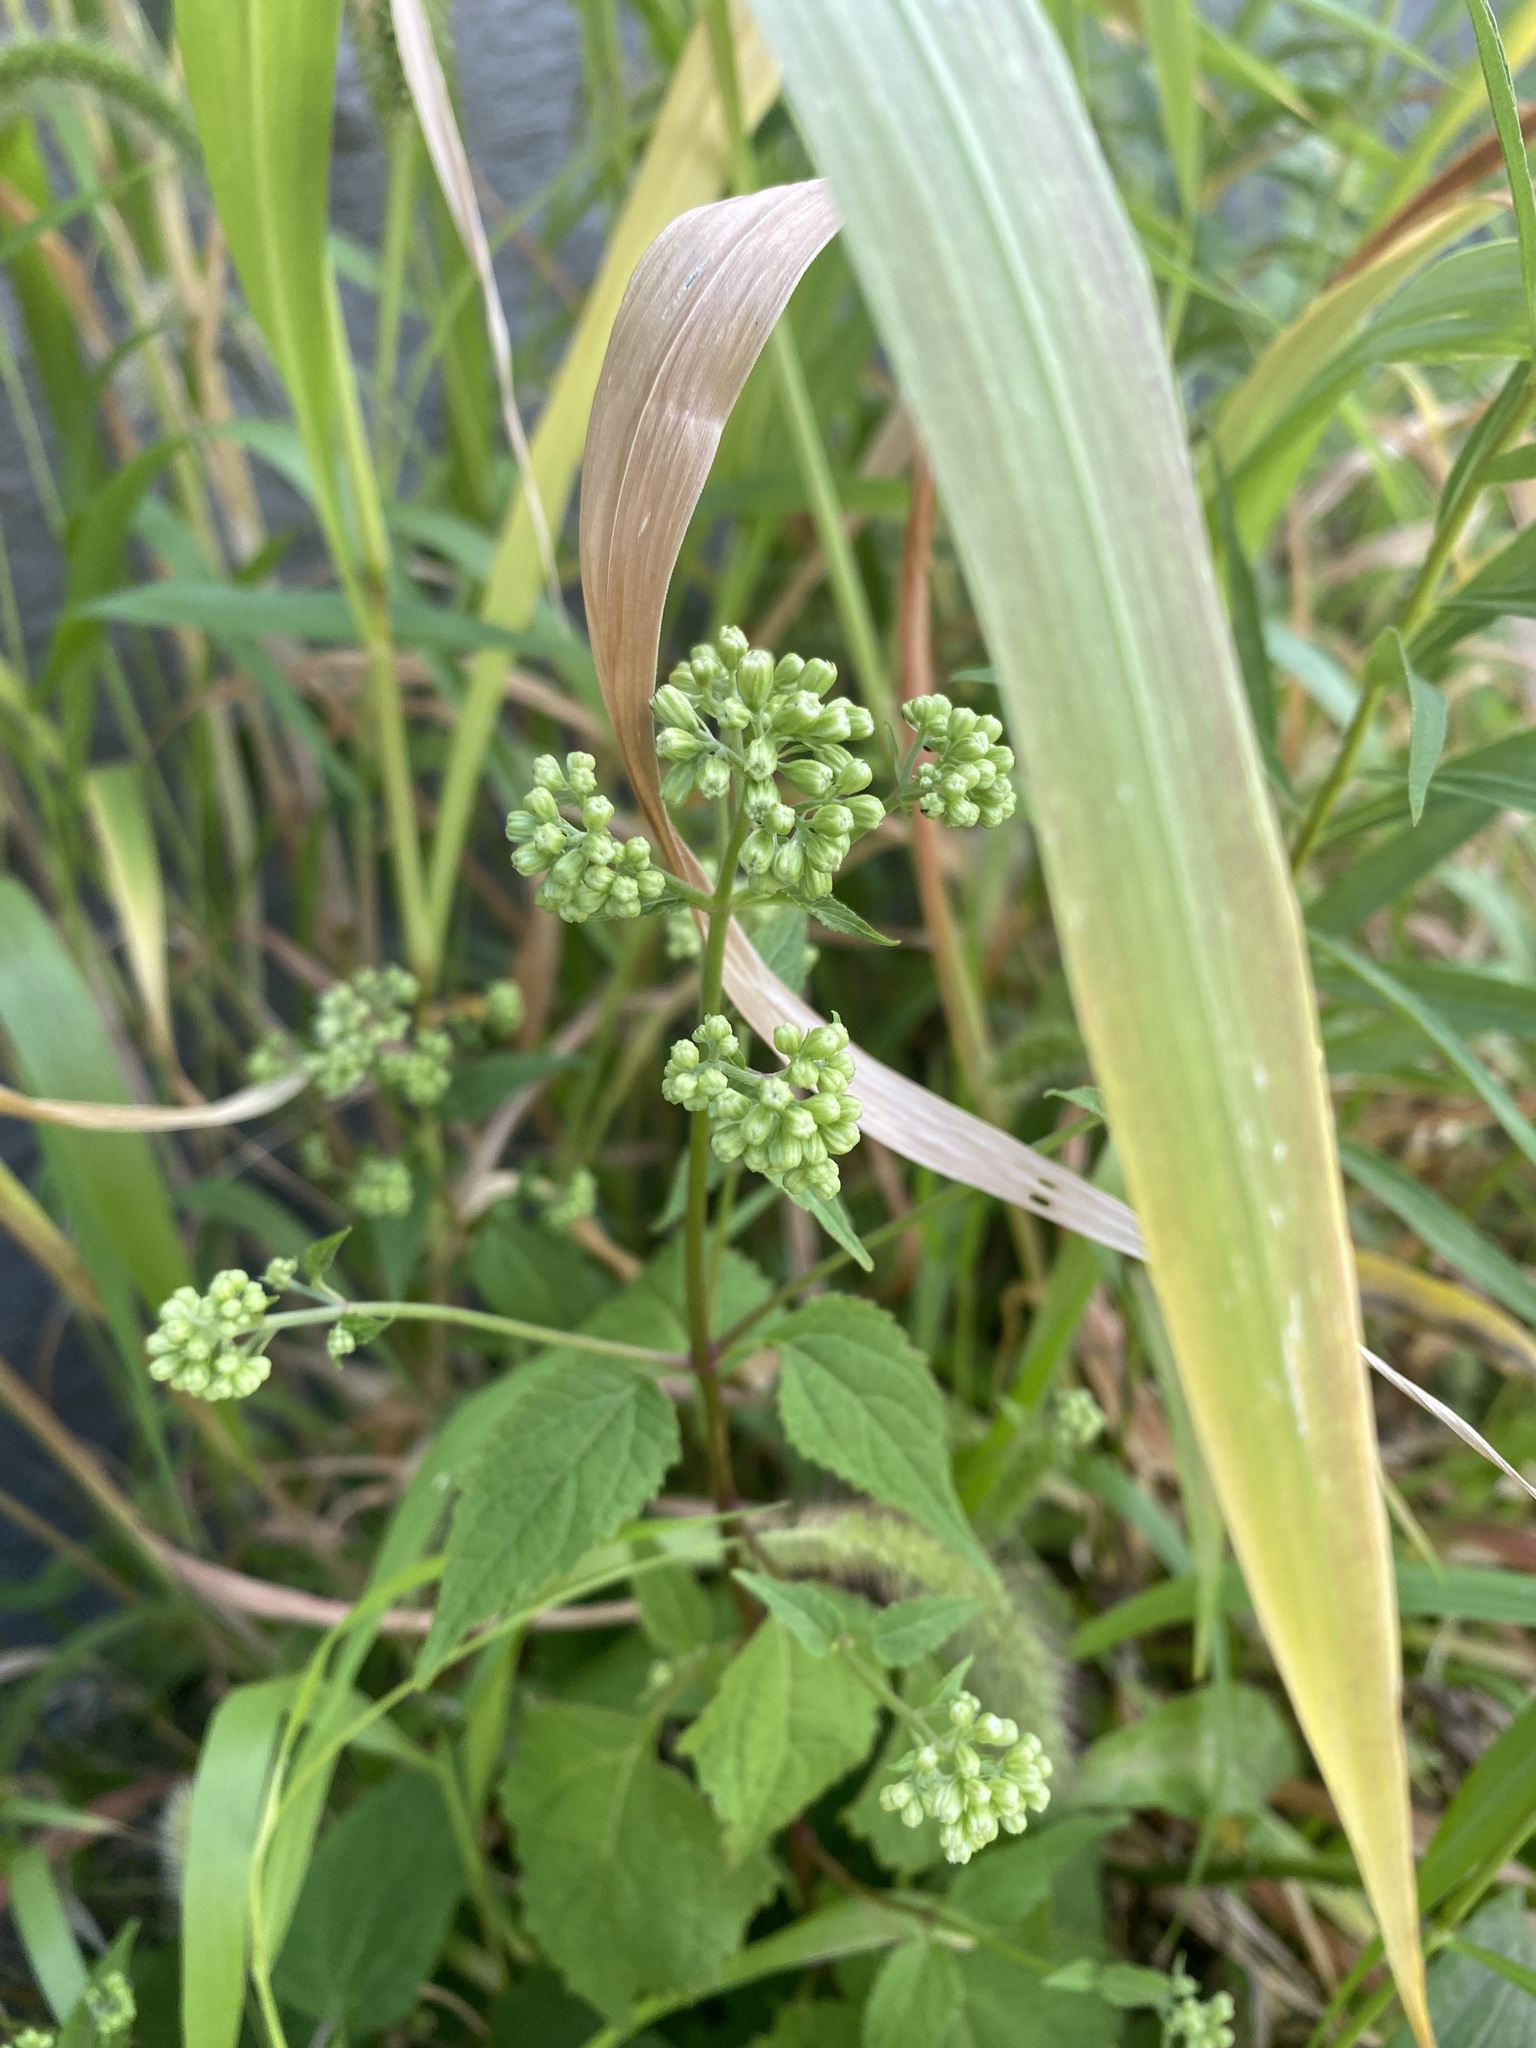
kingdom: Plantae
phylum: Tracheophyta
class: Magnoliopsida
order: Asterales
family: Asteraceae
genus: Ageratina
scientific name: Ageratina altissima
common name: White snakeroot
